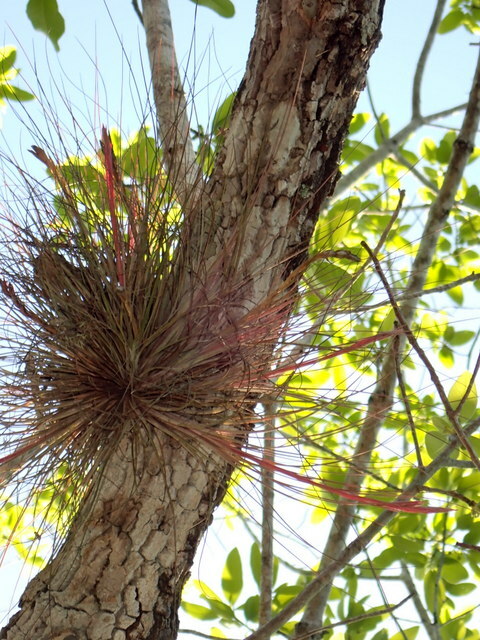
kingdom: Plantae
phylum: Tracheophyta
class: Liliopsida
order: Poales
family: Bromeliaceae
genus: Tillandsia
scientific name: Tillandsia bartramii
